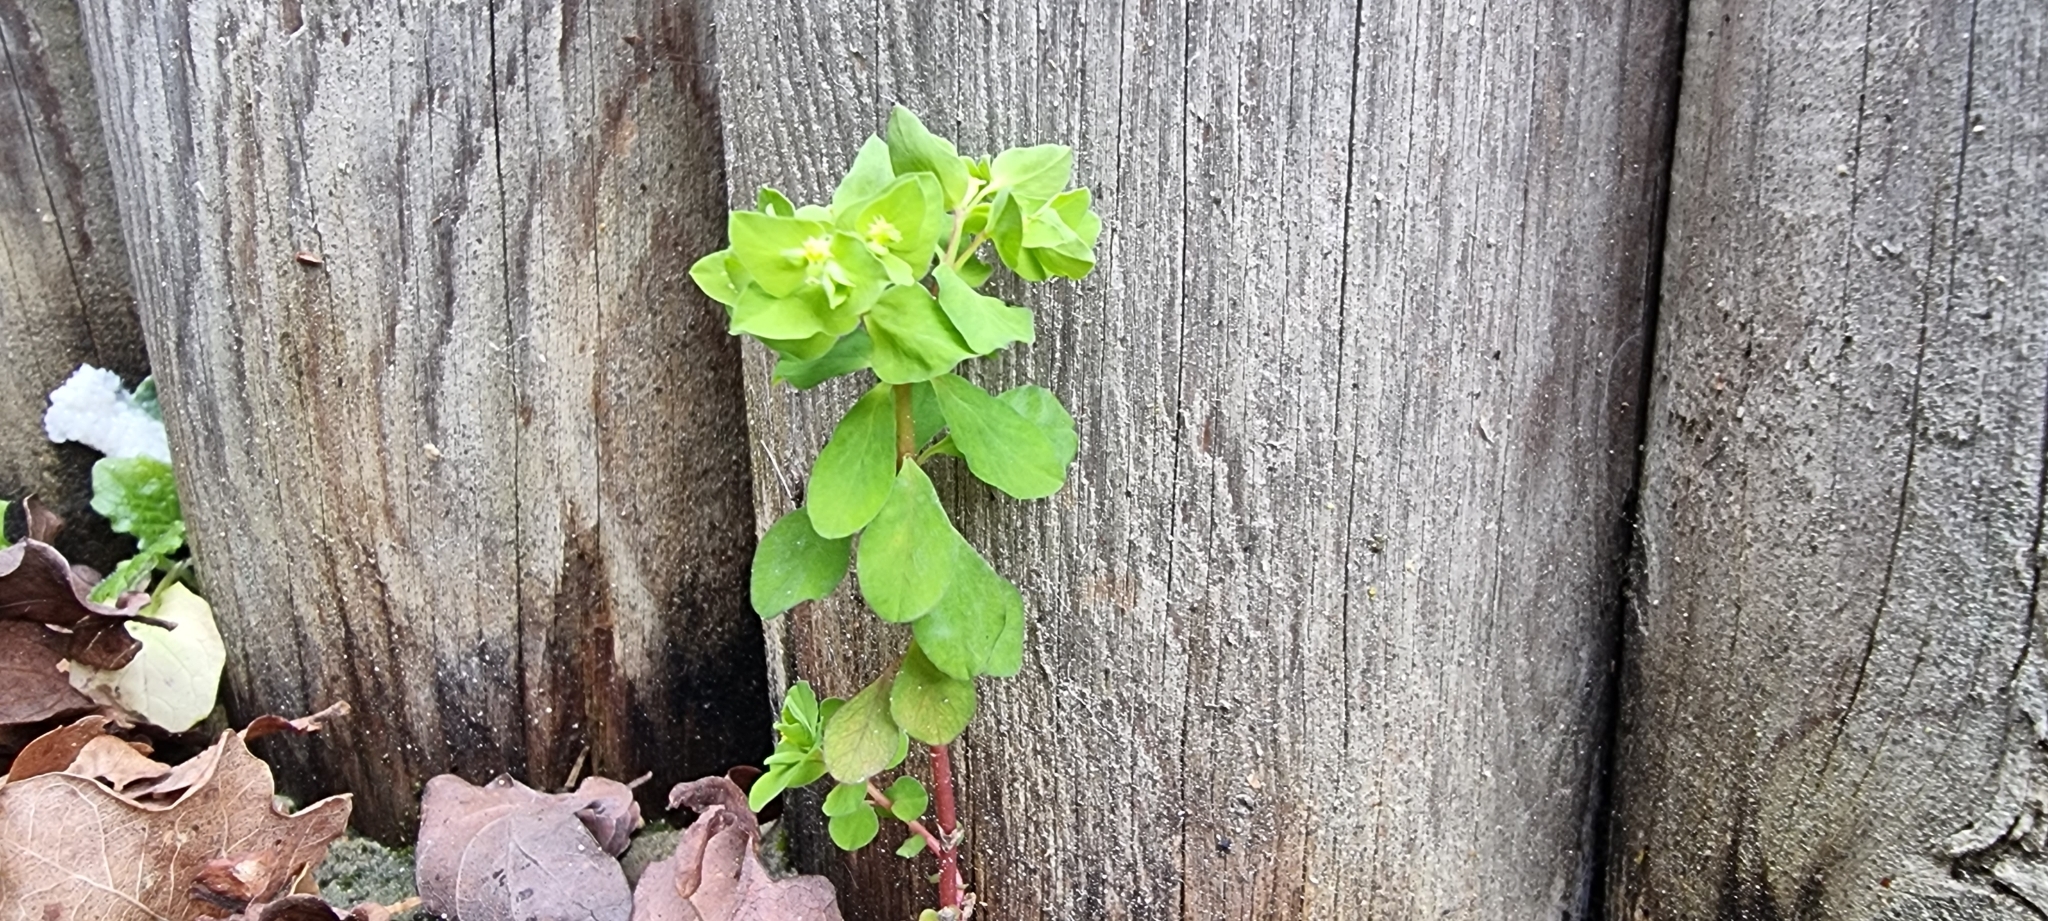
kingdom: Plantae
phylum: Tracheophyta
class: Magnoliopsida
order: Malpighiales
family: Euphorbiaceae
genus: Euphorbia
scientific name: Euphorbia peplus
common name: Petty spurge
